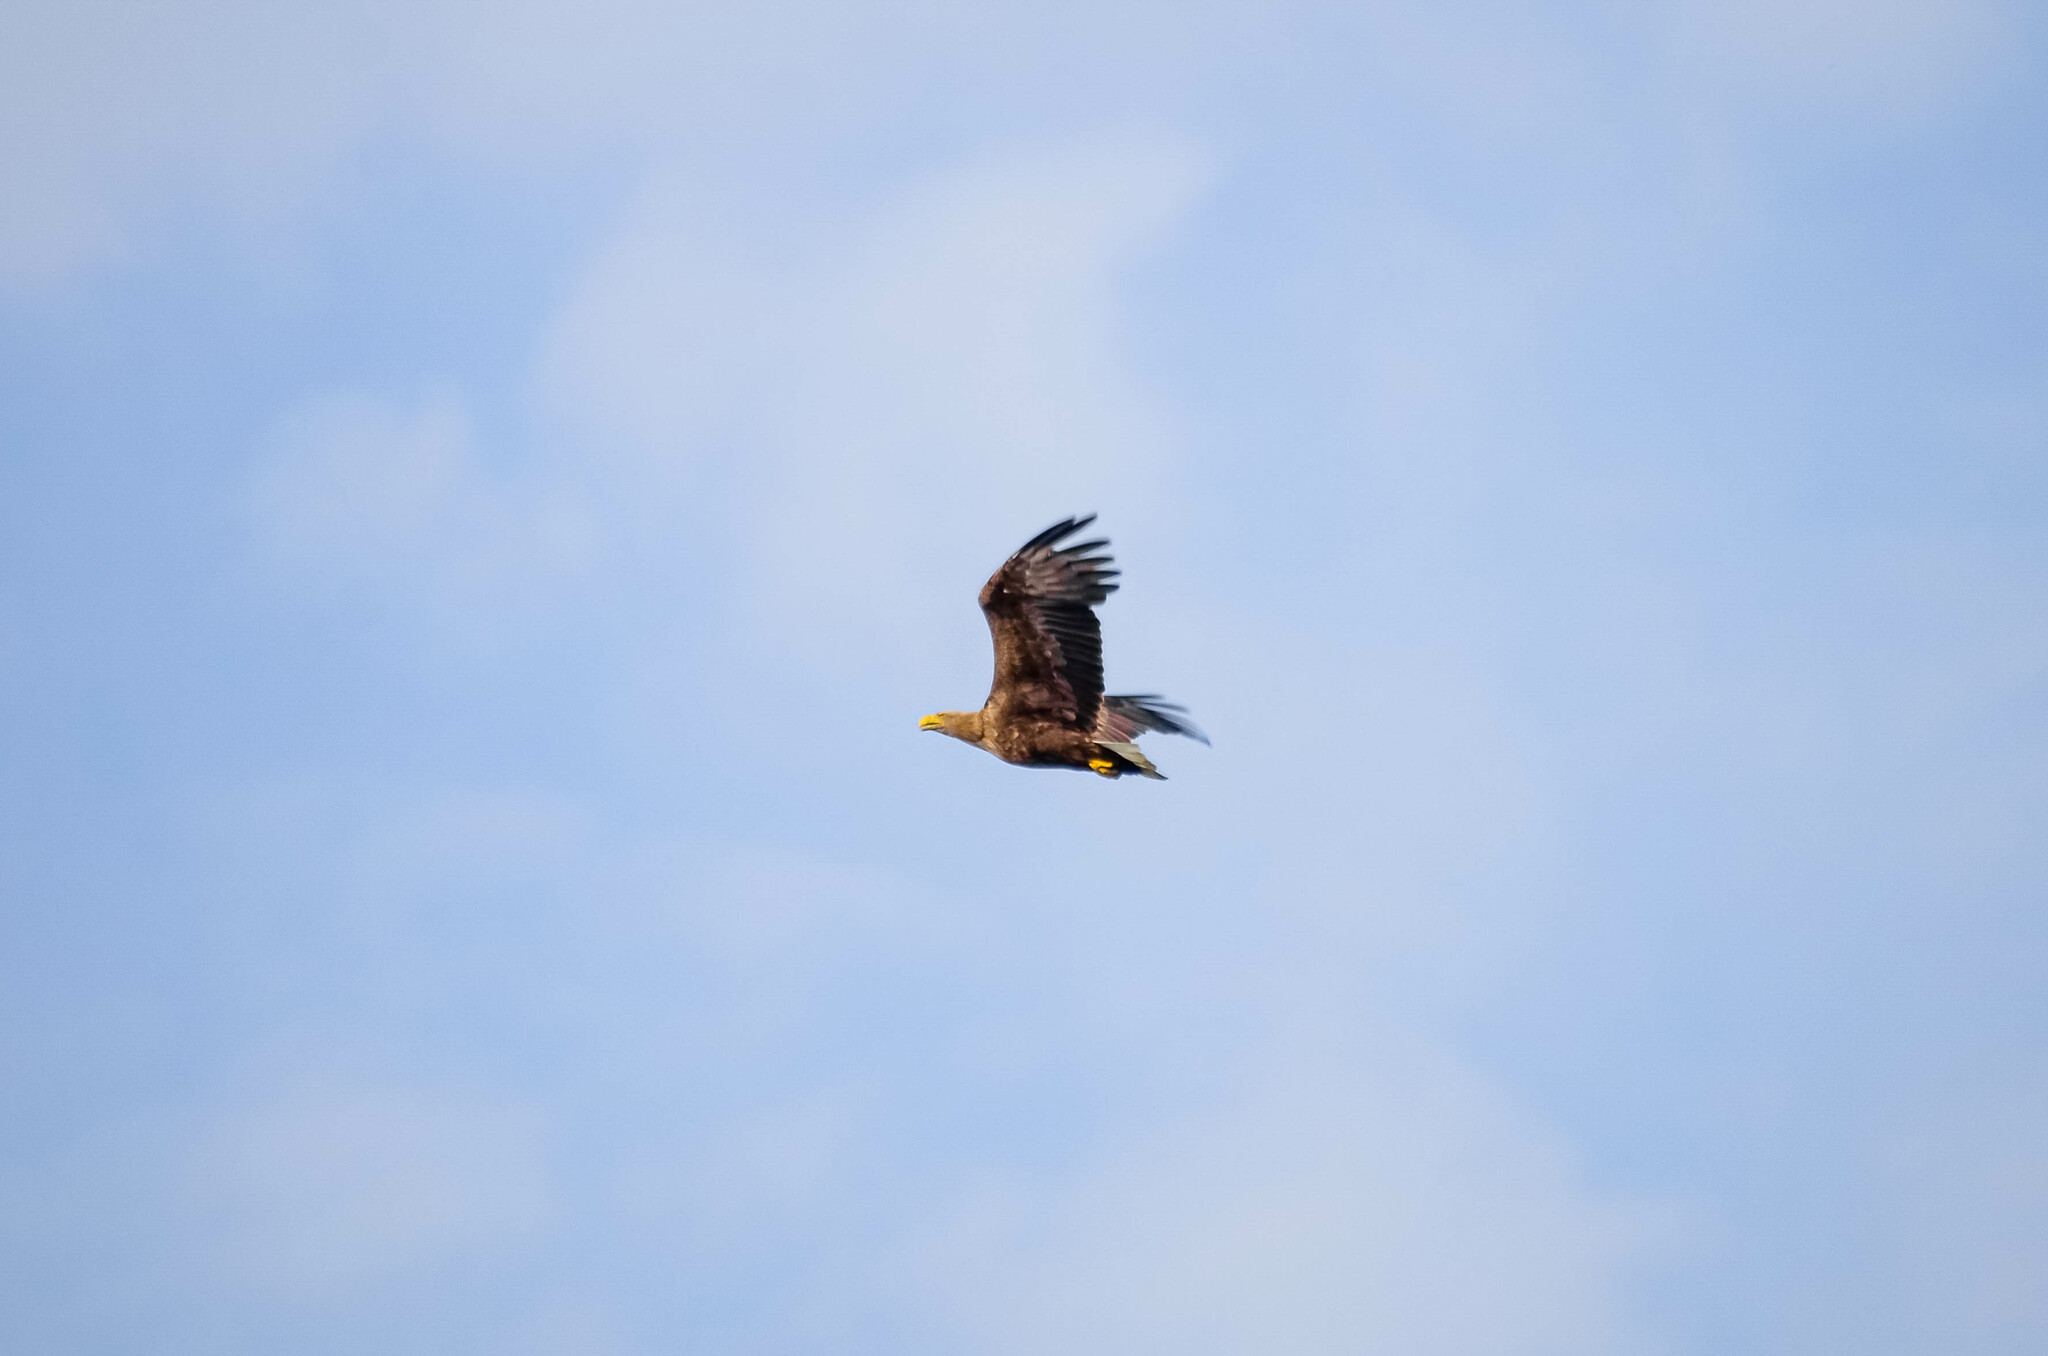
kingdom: Animalia
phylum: Chordata
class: Aves
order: Accipitriformes
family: Accipitridae
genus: Haliaeetus
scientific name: Haliaeetus albicilla
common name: White-tailed eagle
